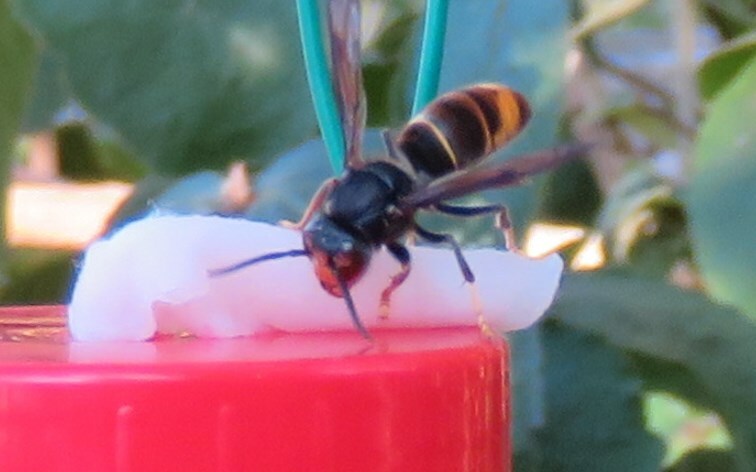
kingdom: Animalia
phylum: Arthropoda
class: Insecta
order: Hymenoptera
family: Vespidae
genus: Vespa
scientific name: Vespa velutina
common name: Asian hornet
